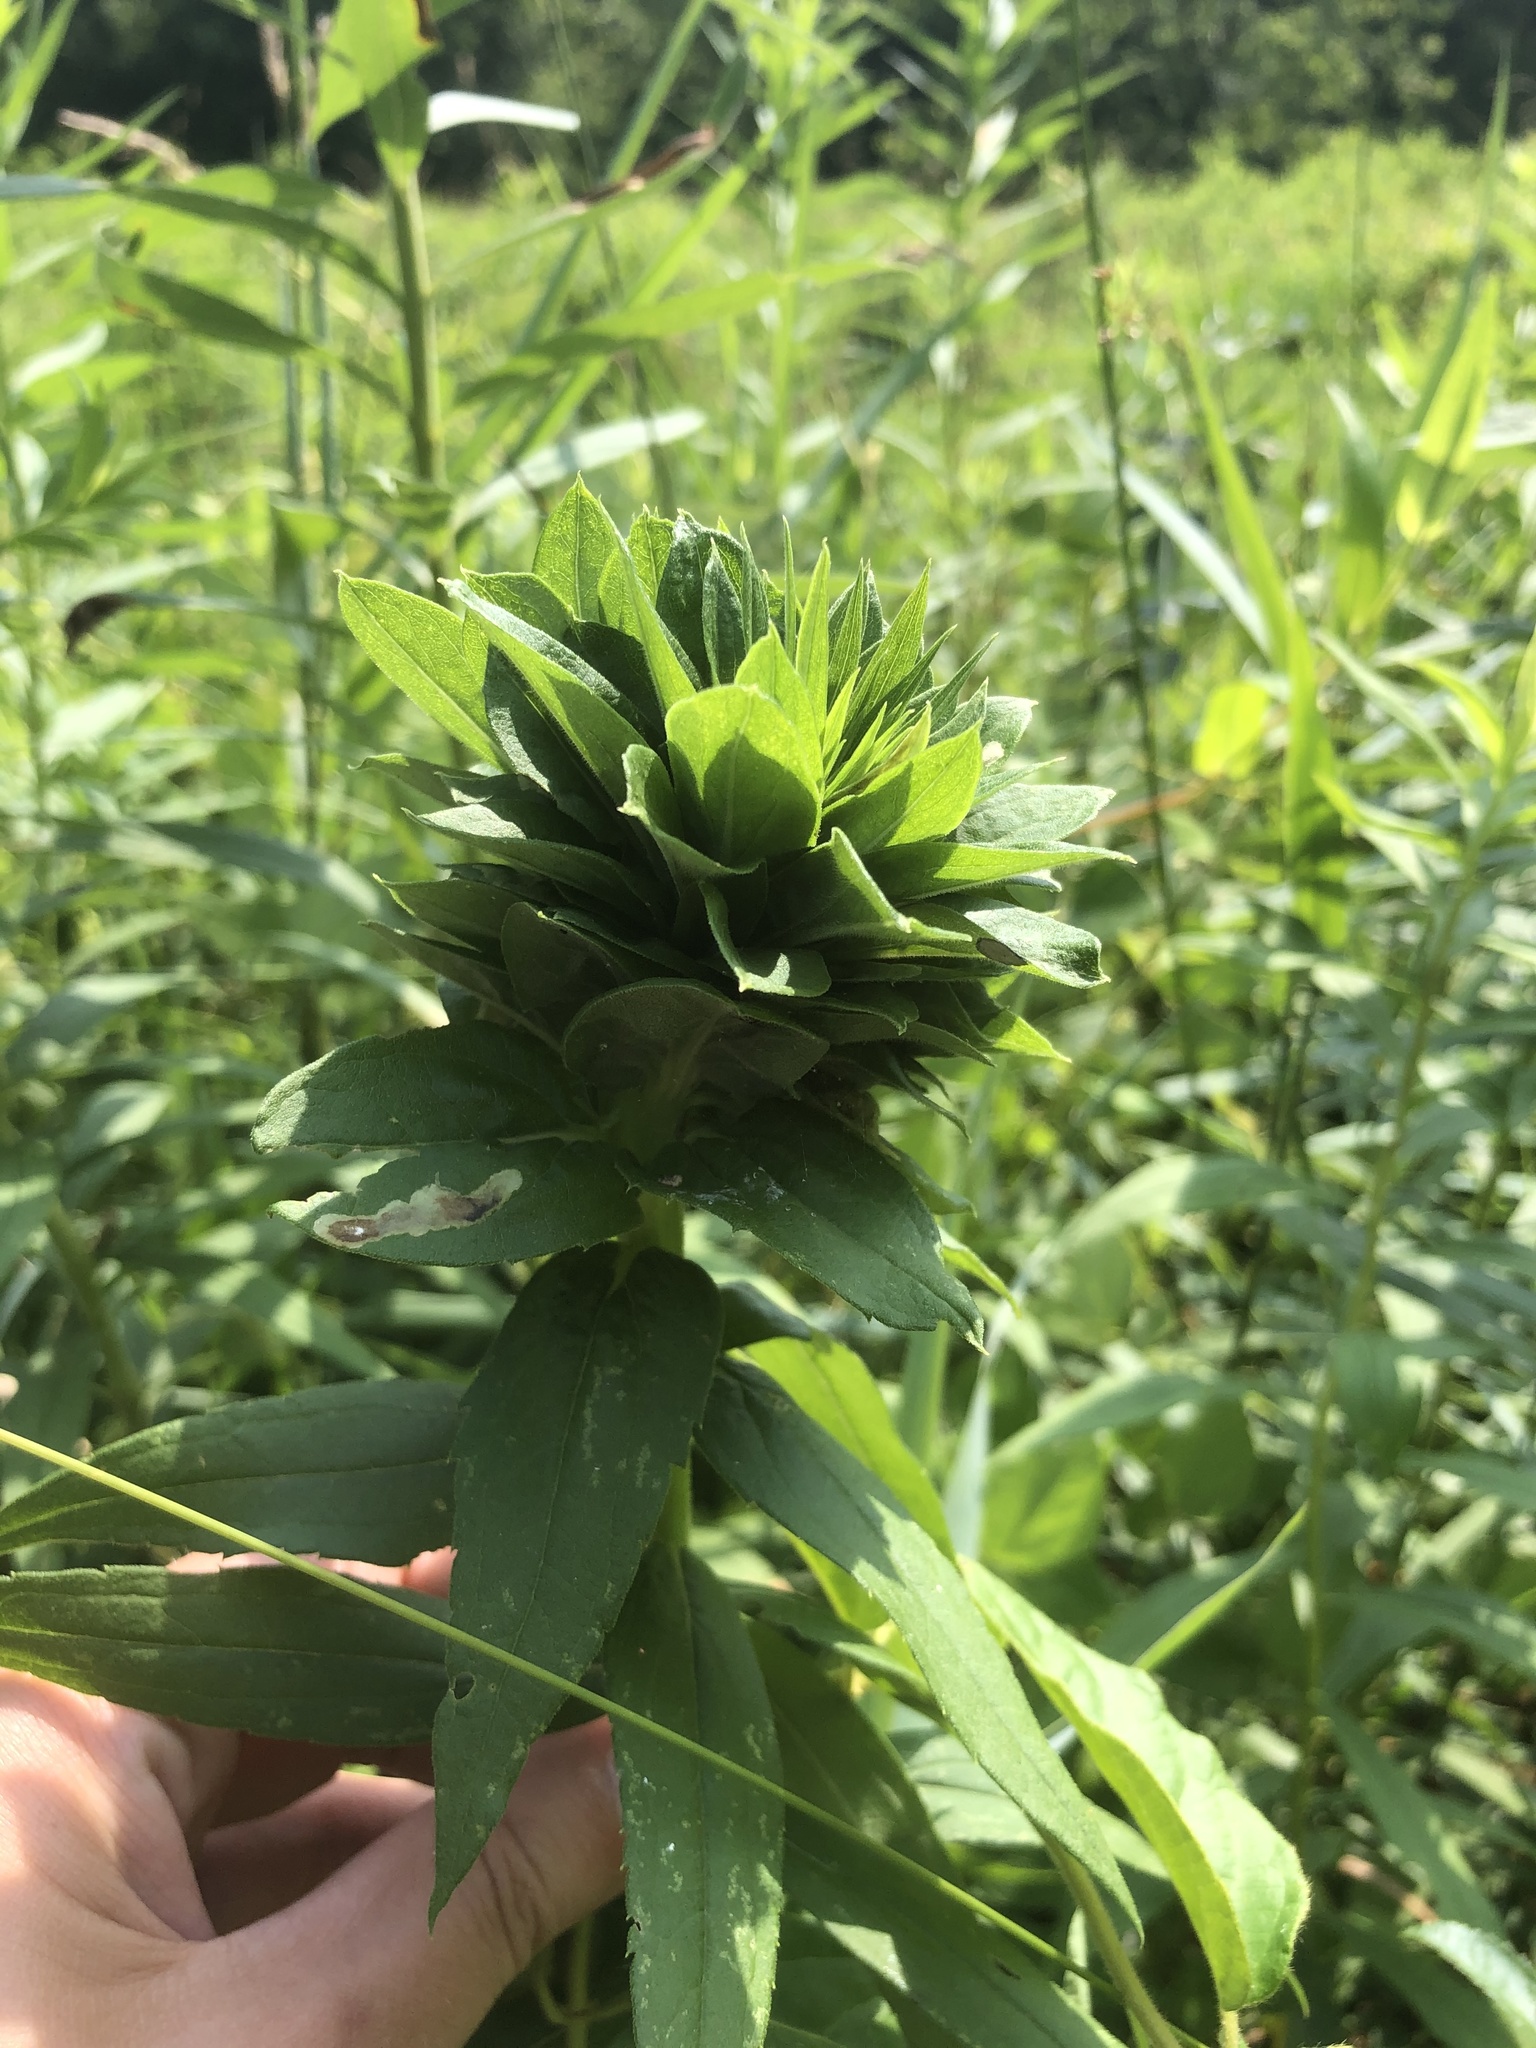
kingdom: Animalia
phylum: Arthropoda
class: Insecta
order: Diptera
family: Cecidomyiidae
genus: Rhopalomyia
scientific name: Rhopalomyia solidaginis
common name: Goldenrod bunch gall midge
